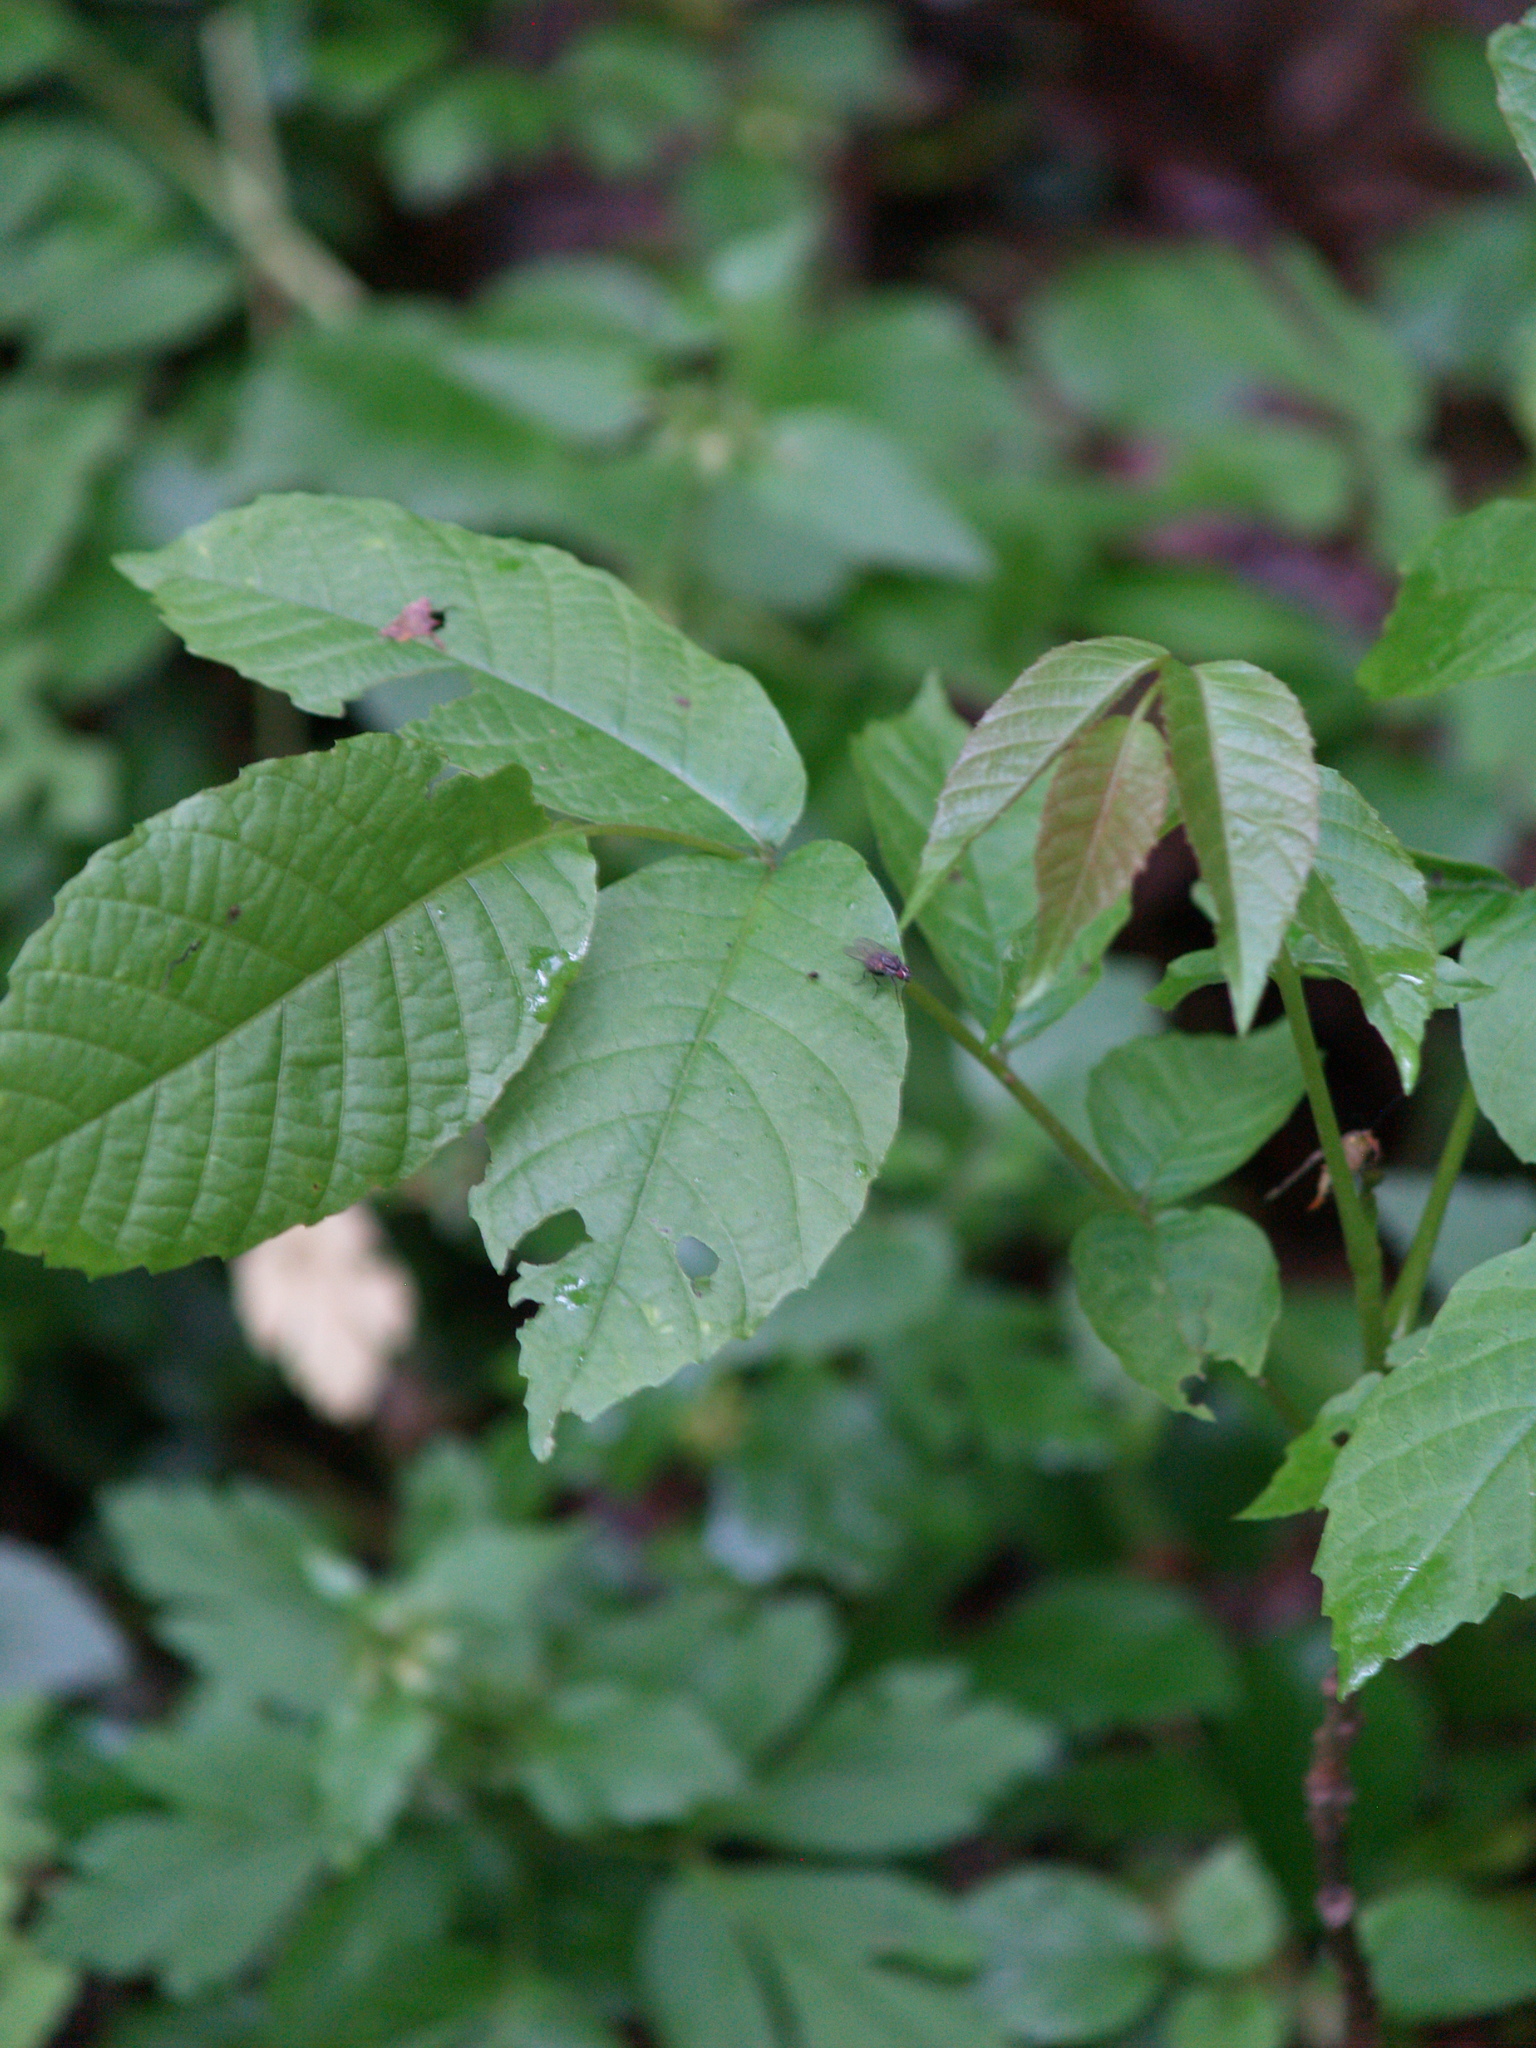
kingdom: Plantae
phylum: Tracheophyta
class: Magnoliopsida
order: Fagales
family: Juglandaceae
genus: Juglans
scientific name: Juglans regia
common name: Walnut
